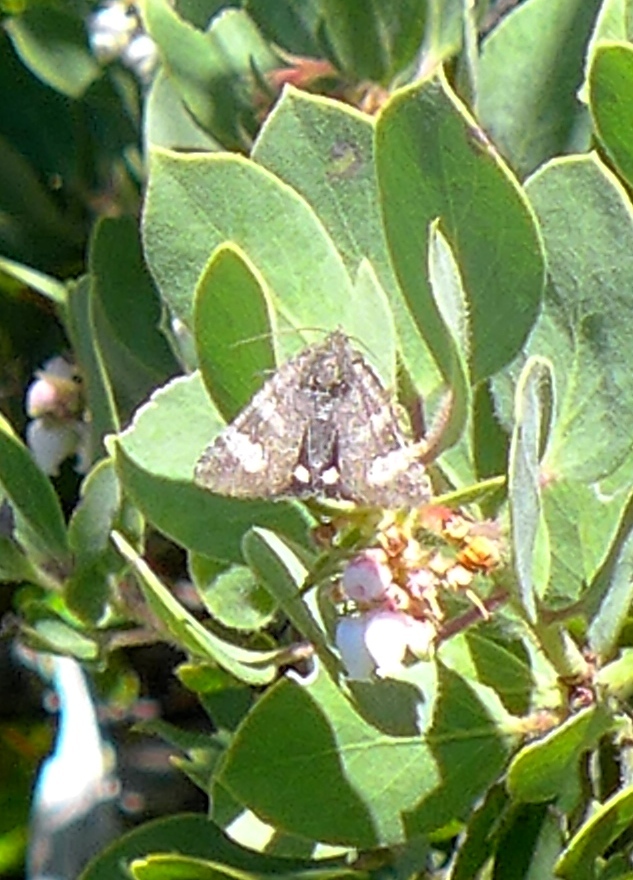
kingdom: Animalia
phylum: Arthropoda
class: Insecta
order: Lepidoptera
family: Erebidae
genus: Litocala
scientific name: Litocala sexsignata
